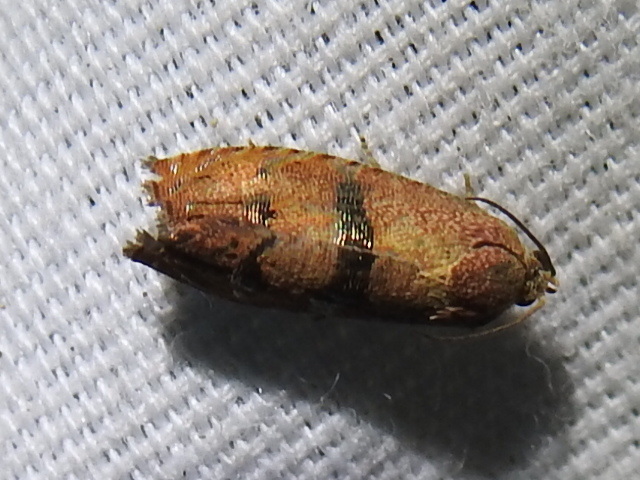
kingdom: Animalia
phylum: Arthropoda
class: Insecta
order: Lepidoptera
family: Tortricidae
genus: Cydia
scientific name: Cydia latiferreana
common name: Filbertworm moth
